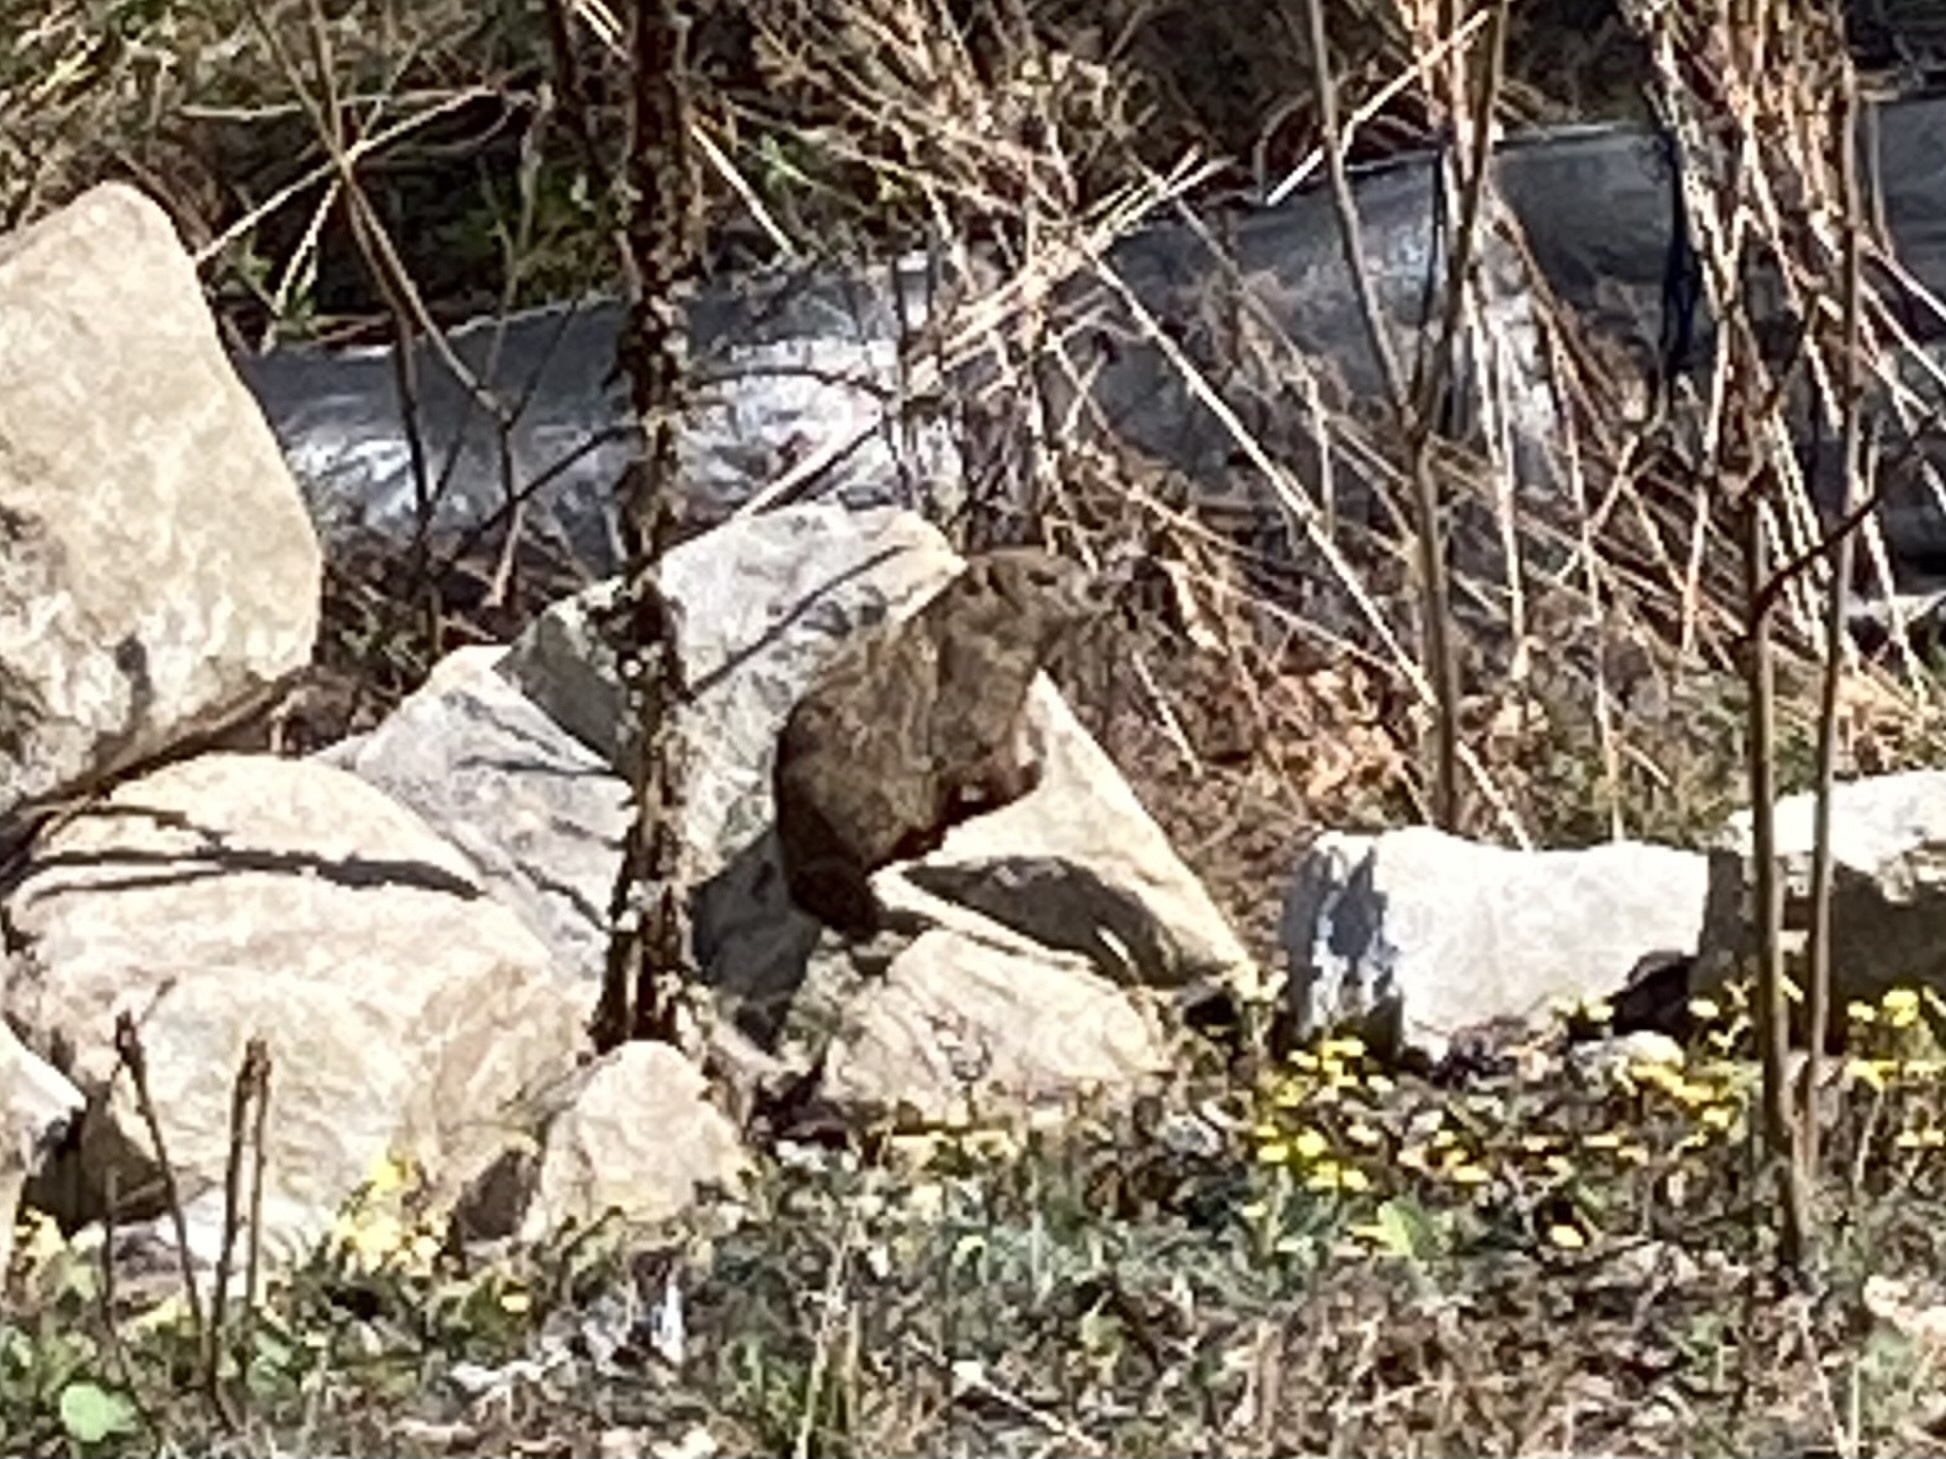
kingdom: Animalia
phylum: Chordata
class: Mammalia
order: Rodentia
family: Sciuridae
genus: Marmota
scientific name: Marmota monax
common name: Groundhog
